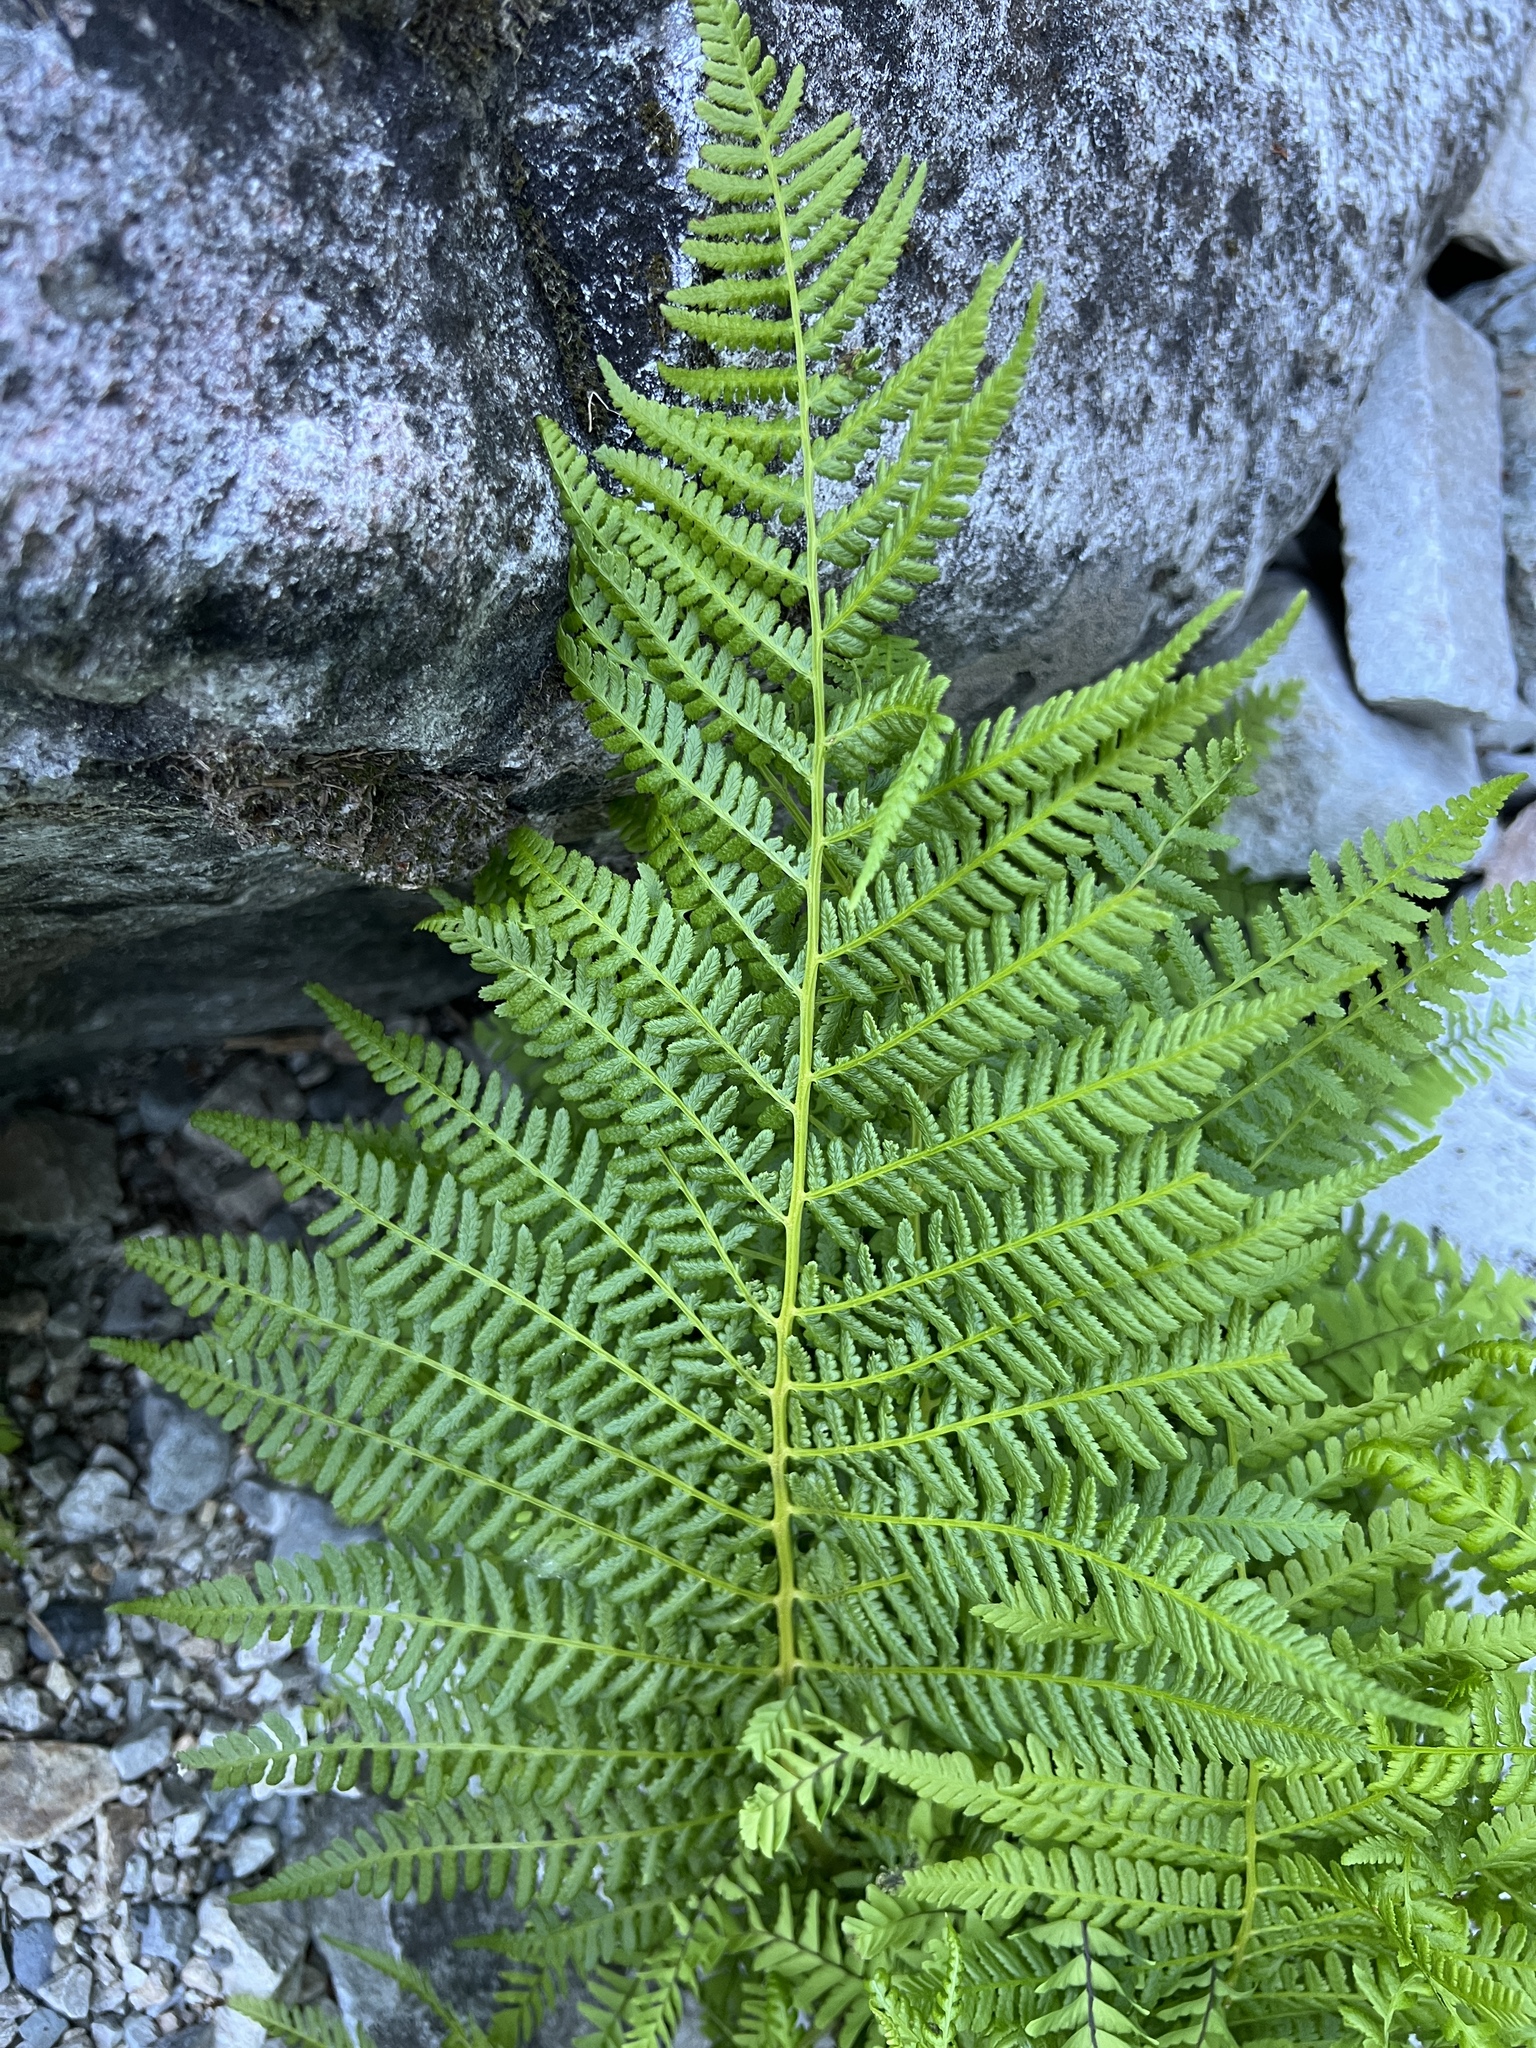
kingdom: Plantae
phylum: Tracheophyta
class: Polypodiopsida
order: Polypodiales
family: Athyriaceae
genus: Athyrium
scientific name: Athyrium cyclosorum
